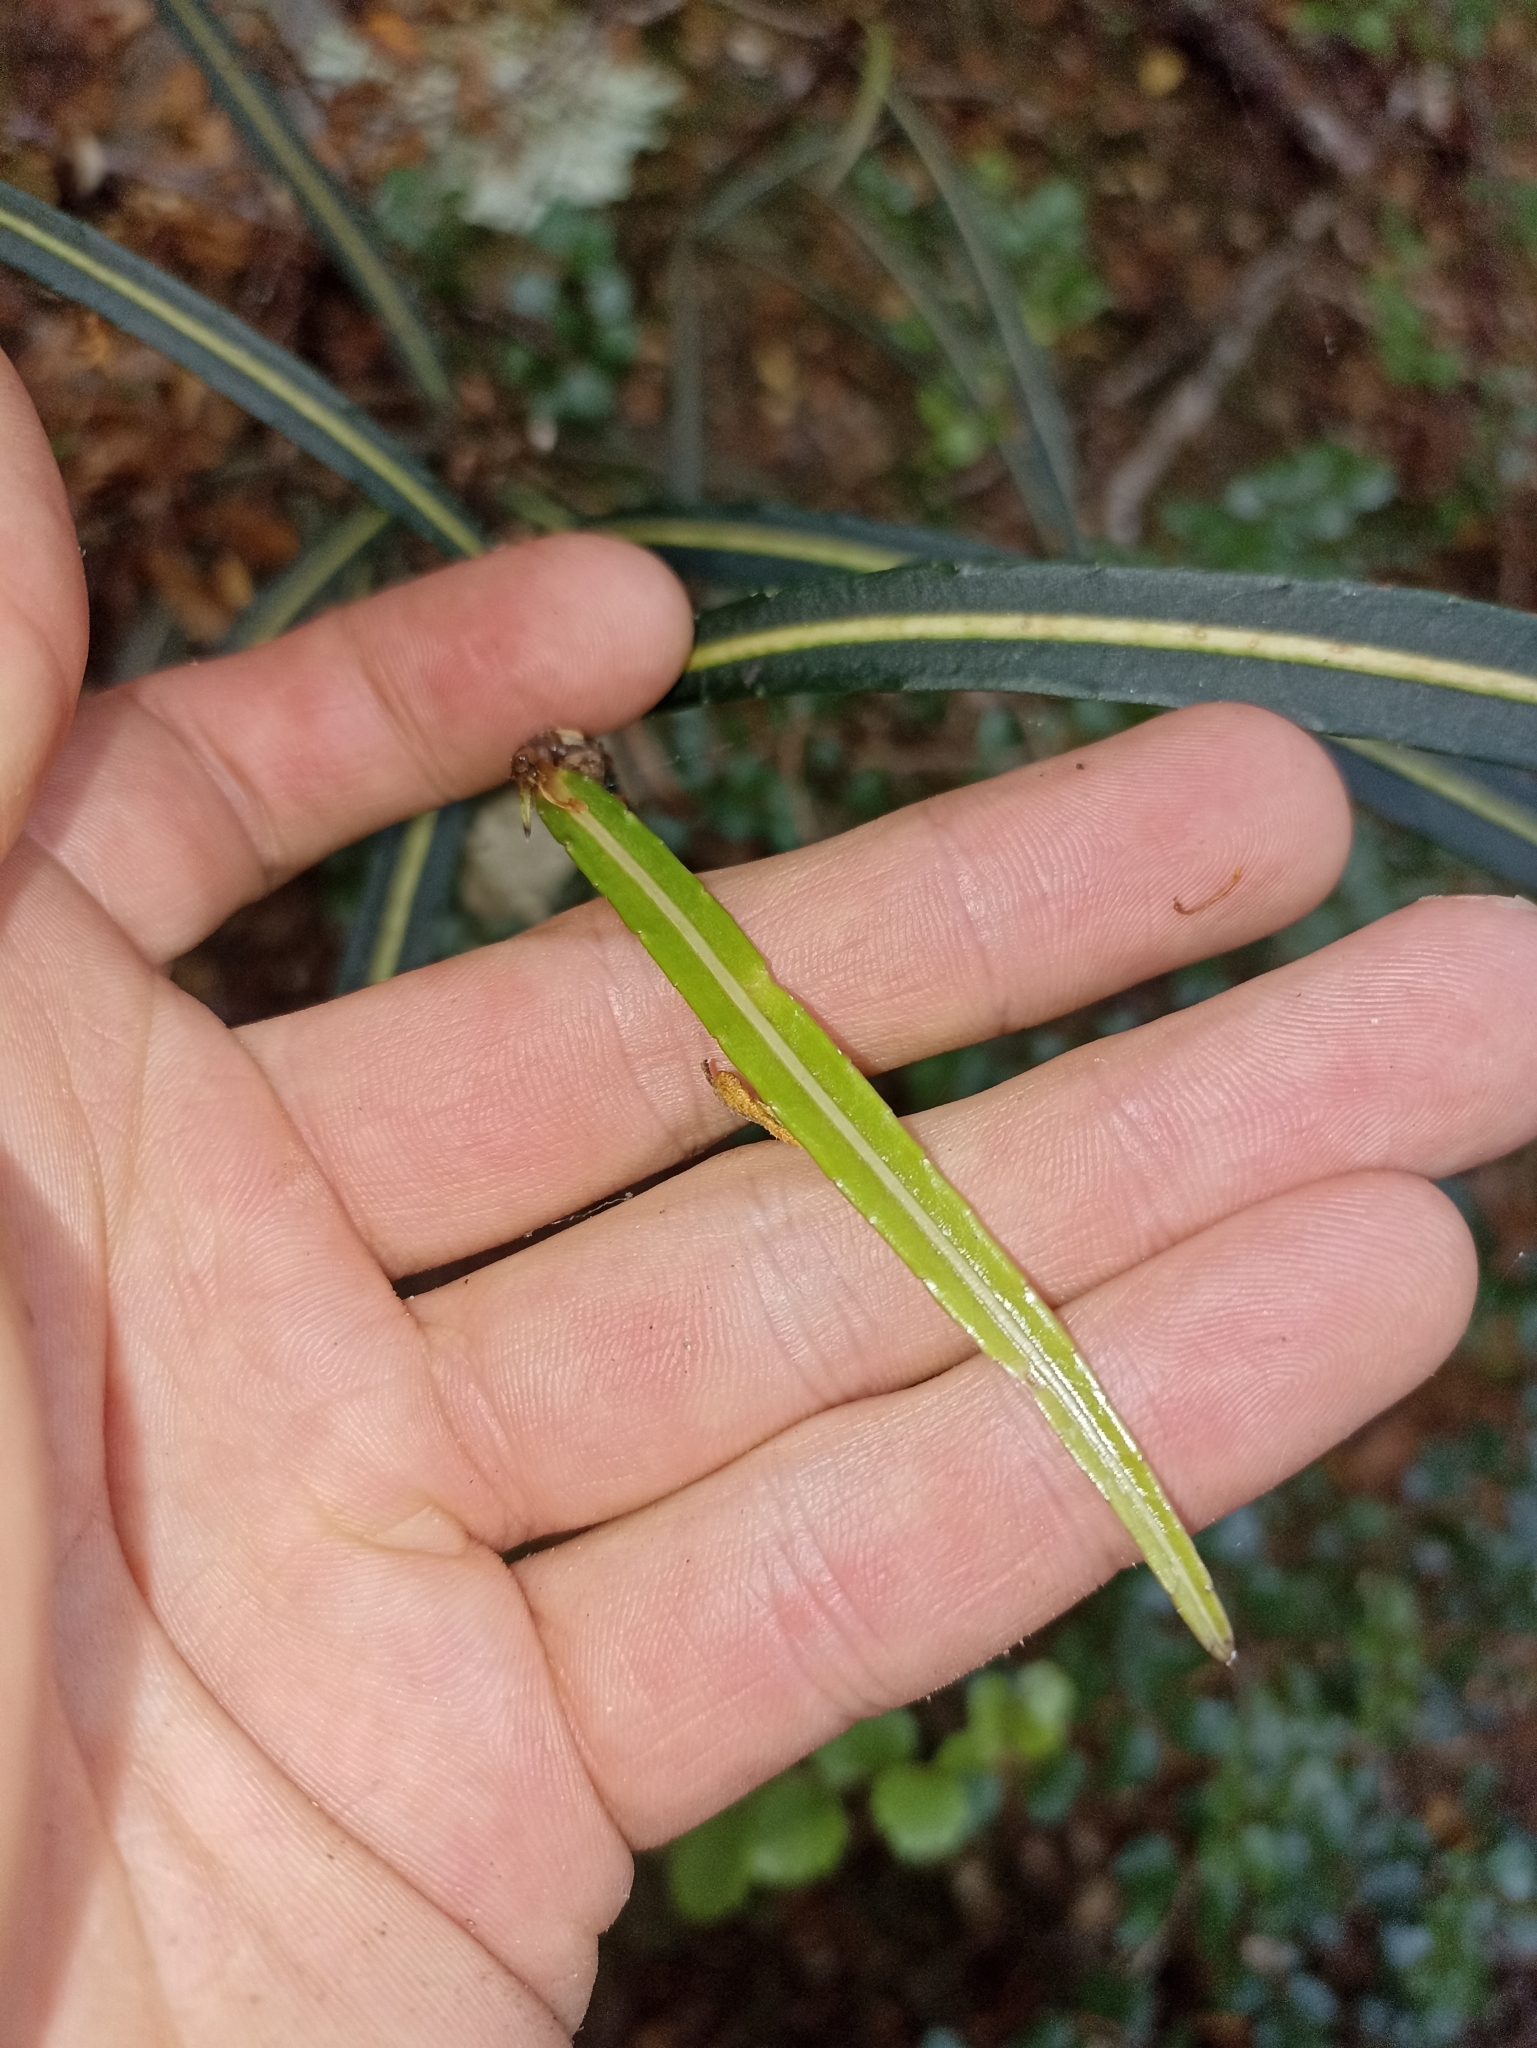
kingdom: Plantae
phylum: Tracheophyta
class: Magnoliopsida
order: Apiales
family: Araliaceae
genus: Pseudopanax
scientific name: Pseudopanax linearis
